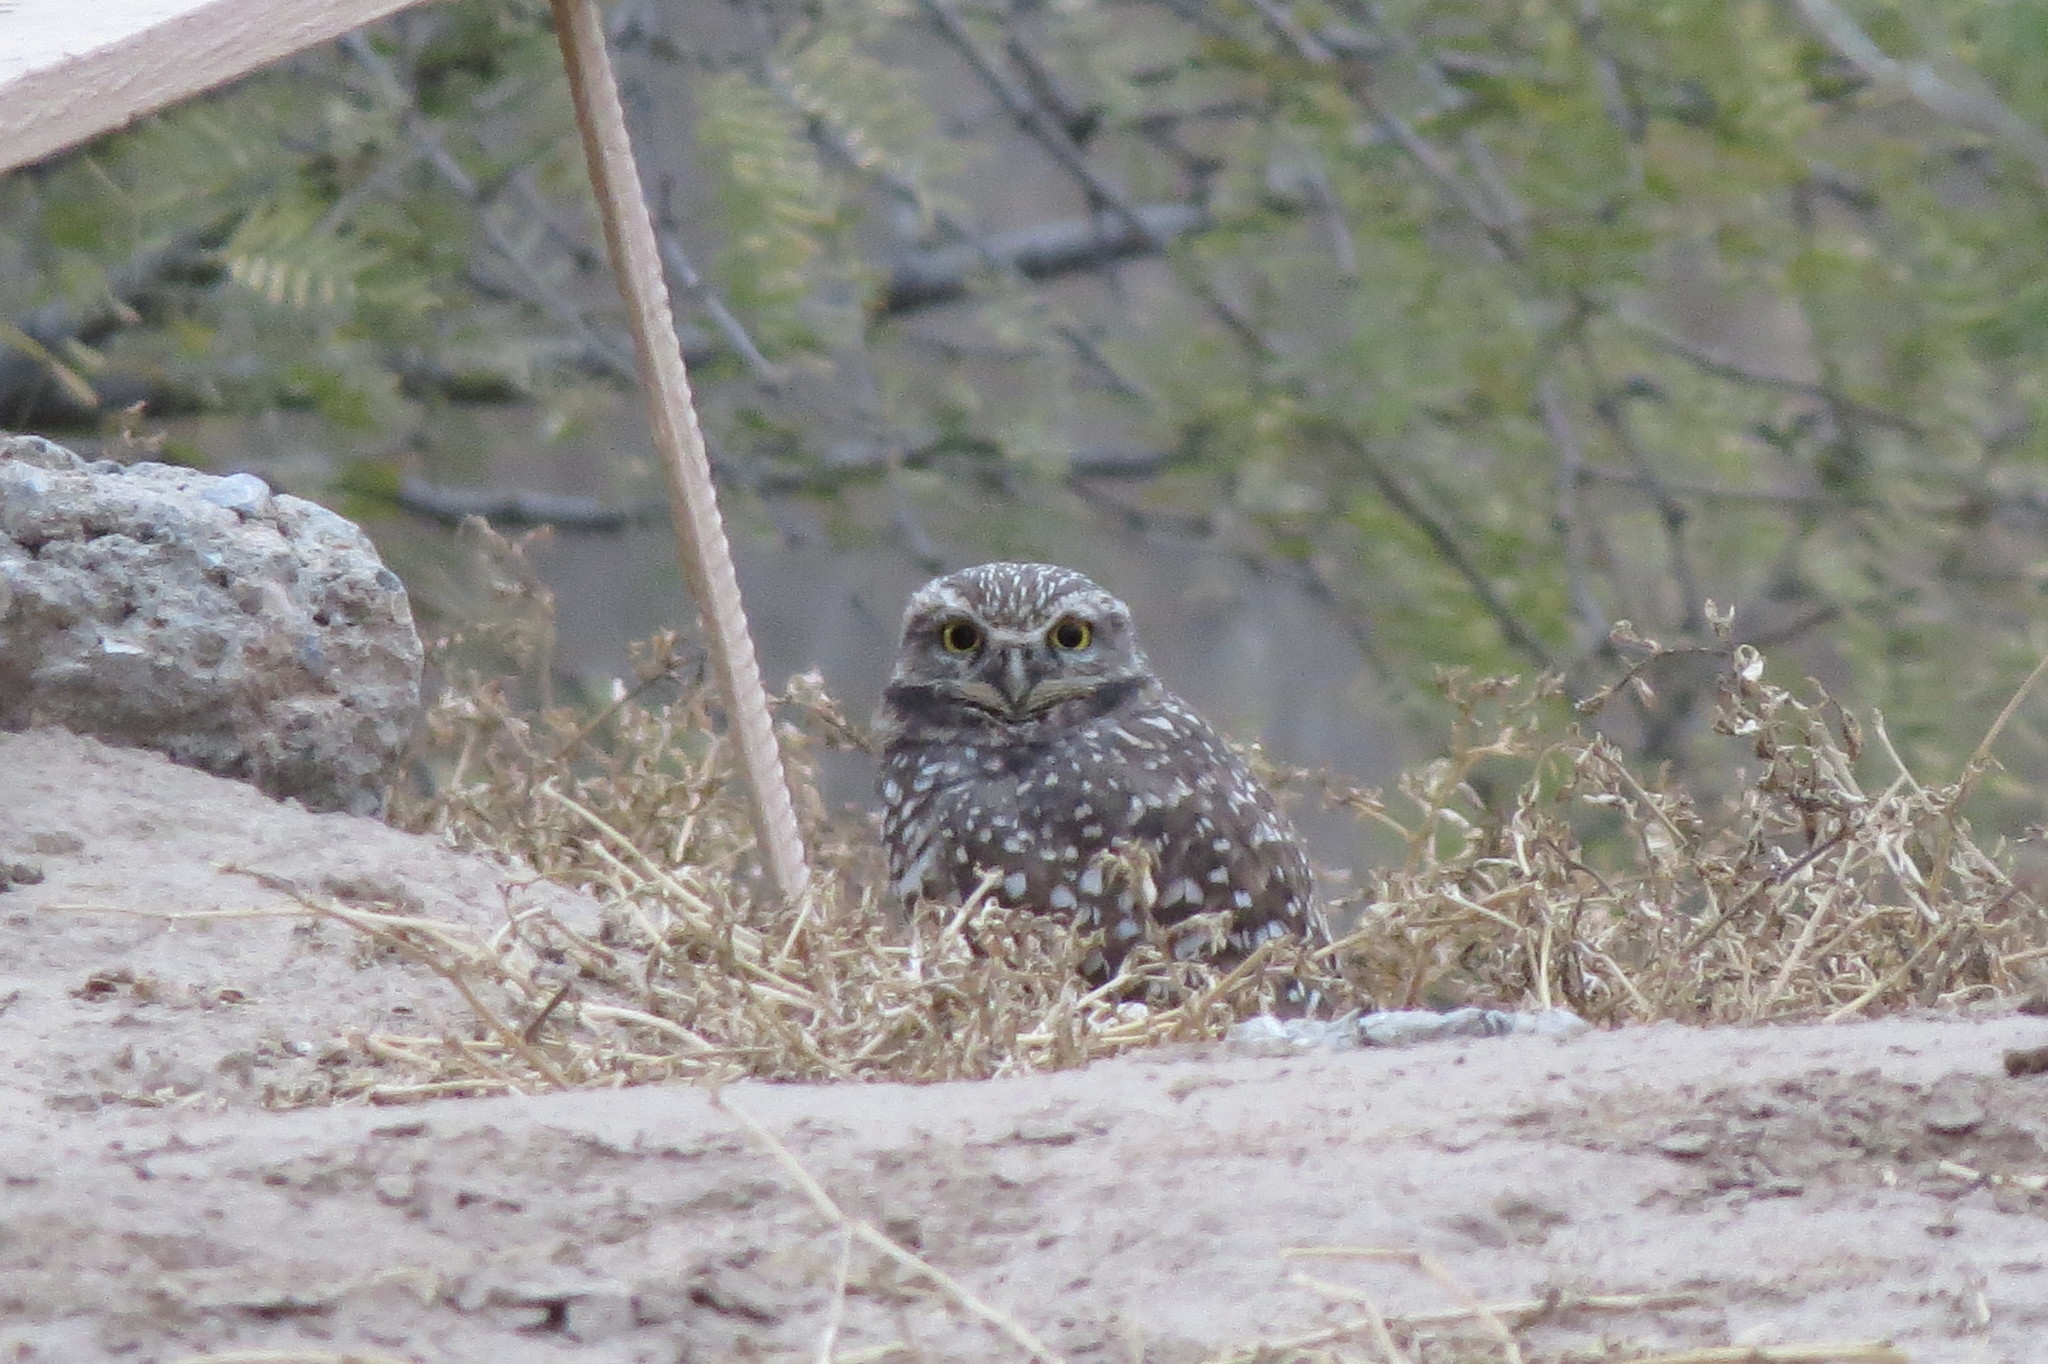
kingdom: Animalia
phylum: Chordata
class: Aves
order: Strigiformes
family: Strigidae
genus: Athene
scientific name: Athene cunicularia
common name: Burrowing owl
